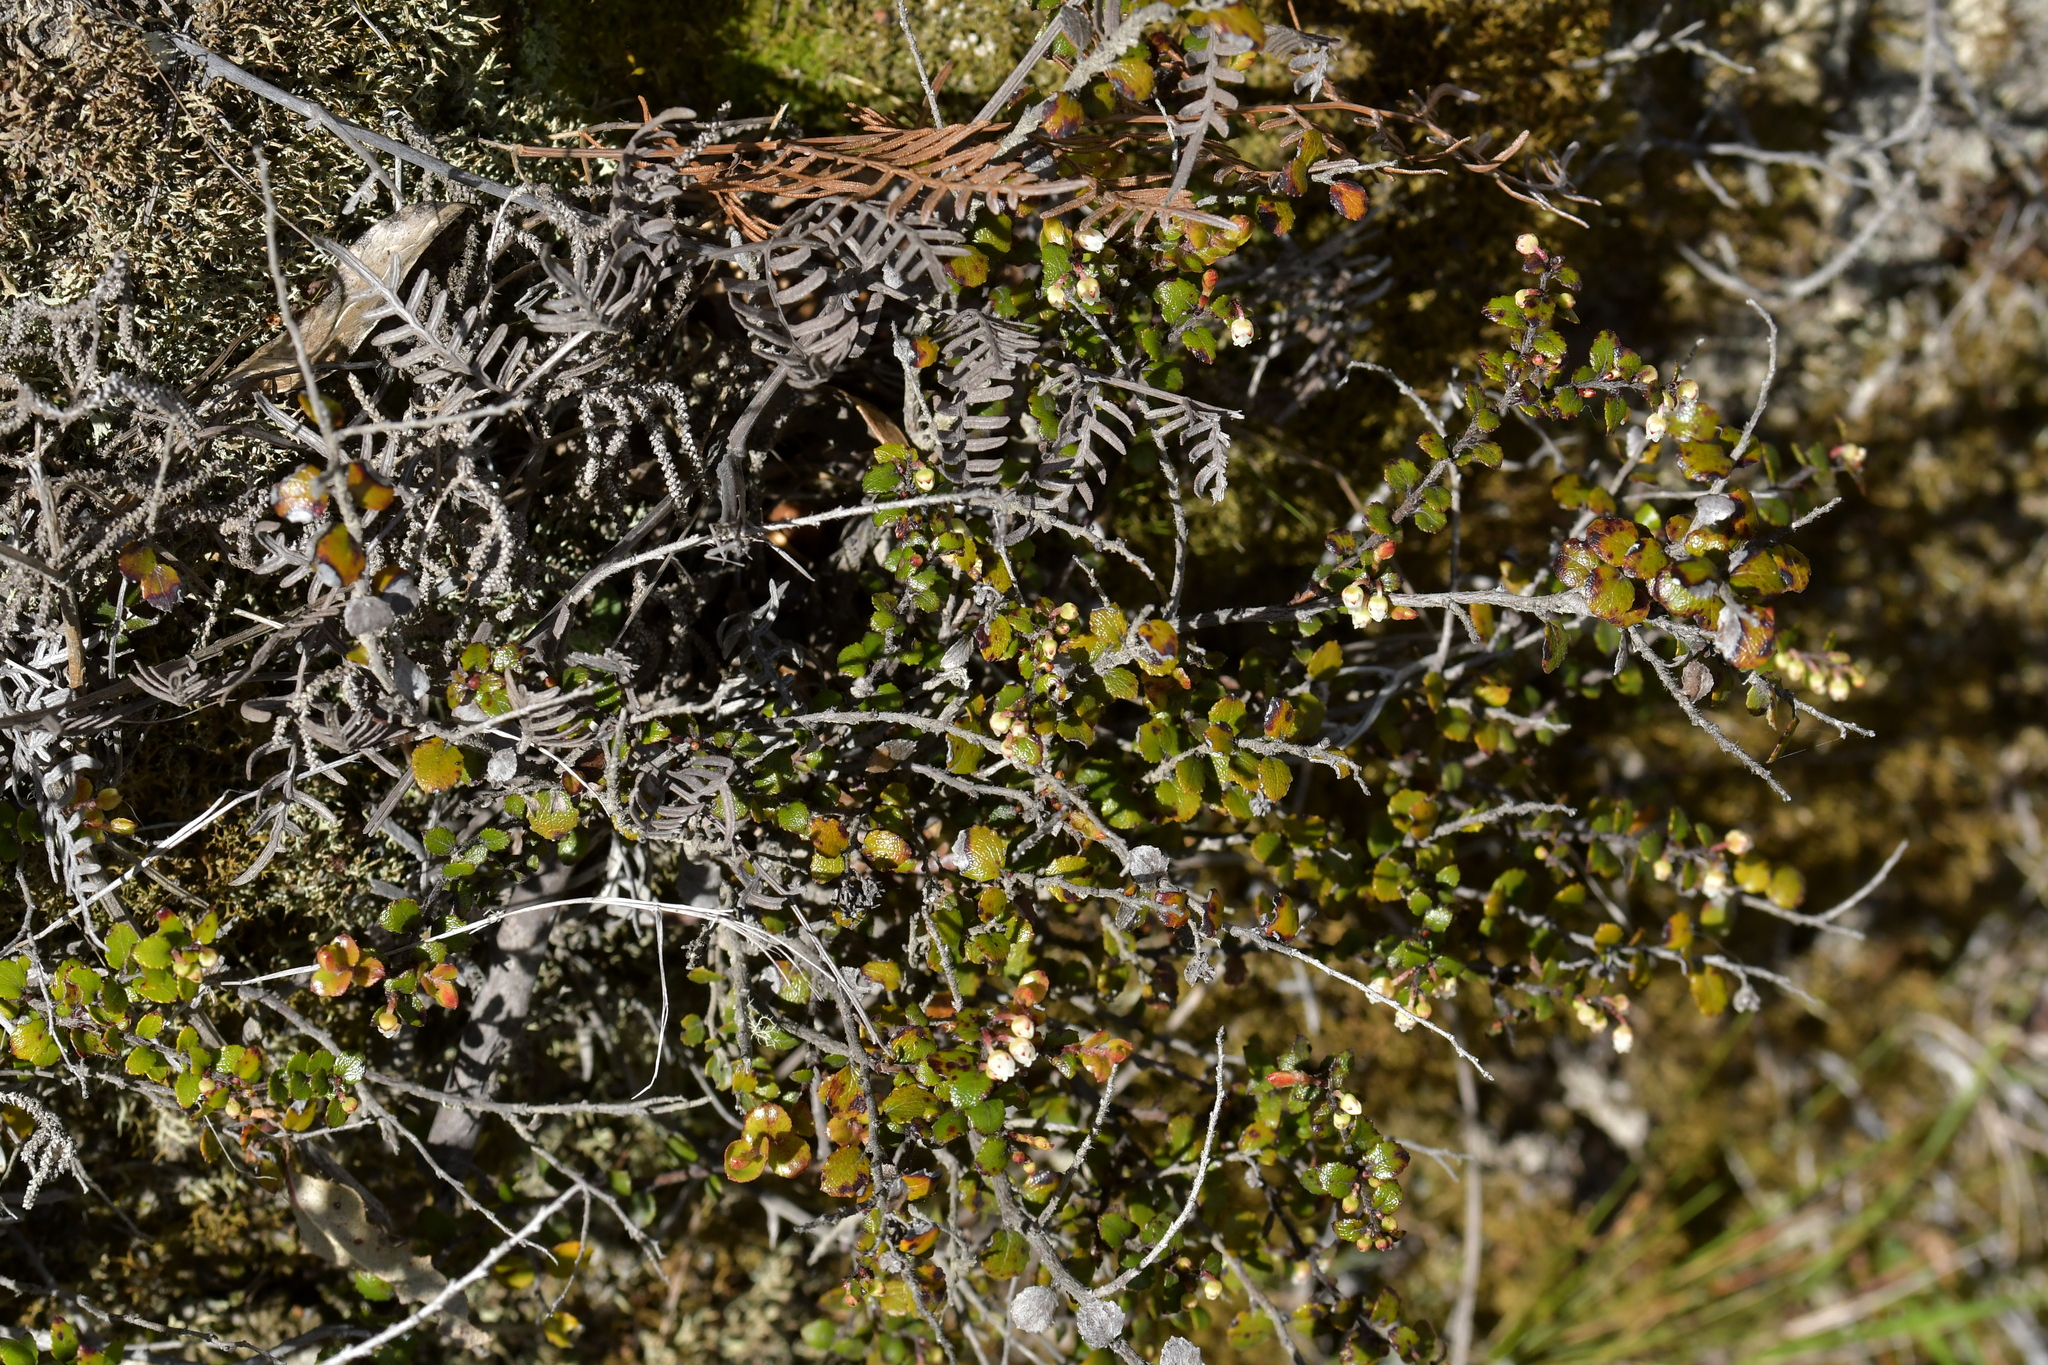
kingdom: Plantae
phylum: Tracheophyta
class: Magnoliopsida
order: Ericales
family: Ericaceae
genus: Gaultheria
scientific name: Gaultheria depressa
